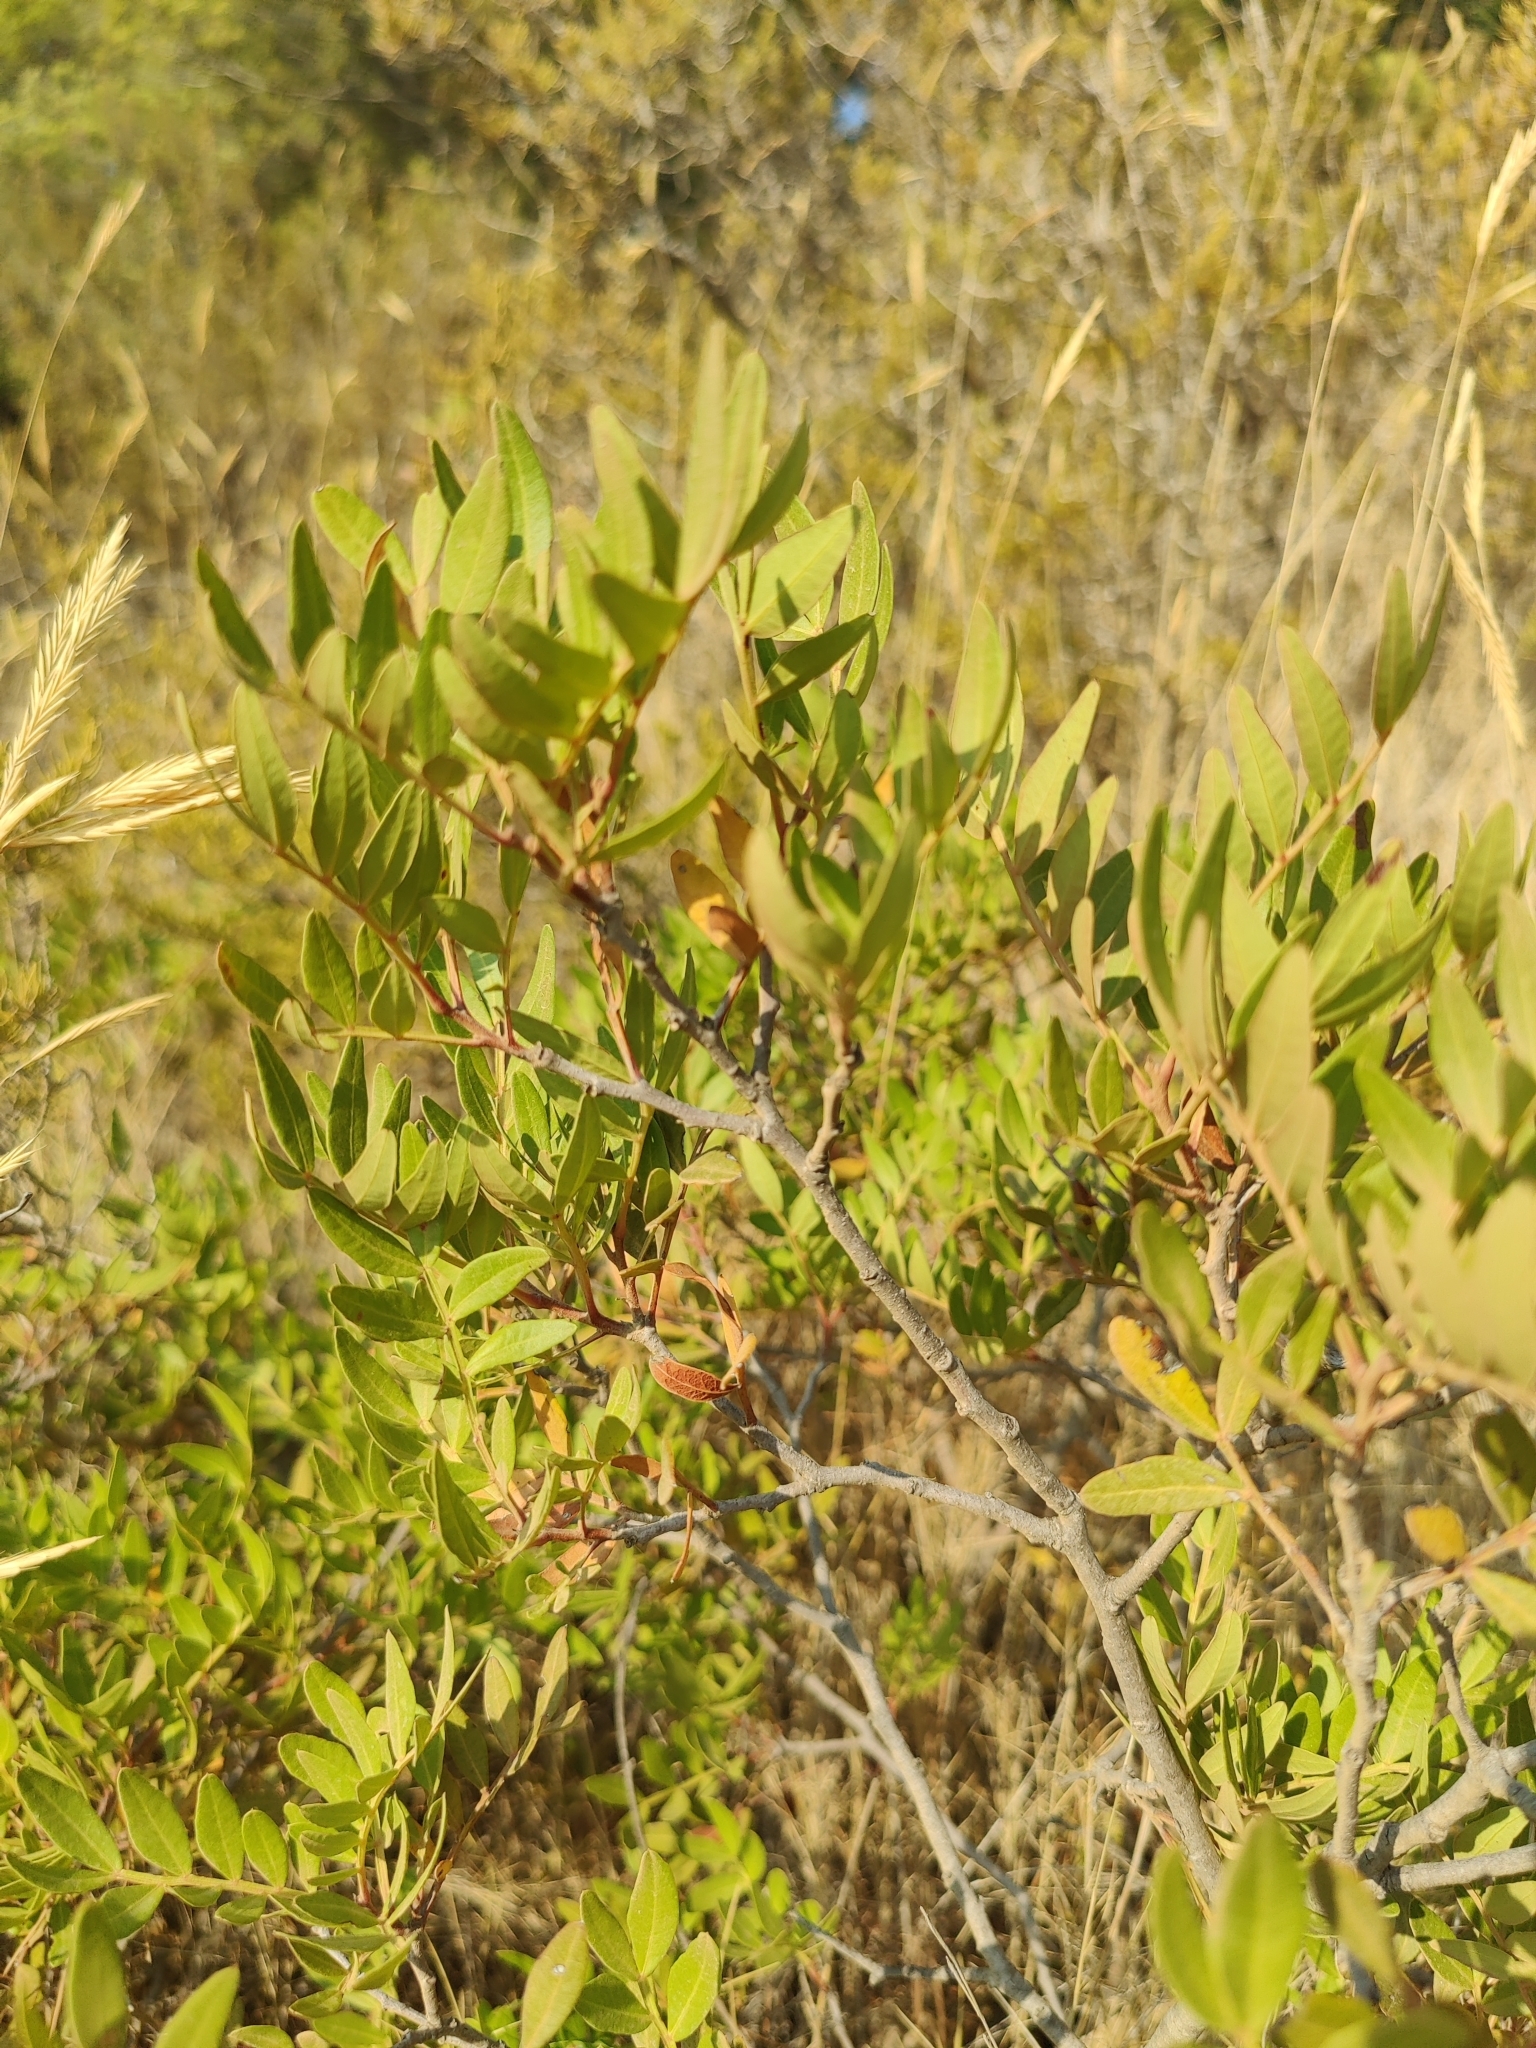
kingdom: Plantae
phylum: Tracheophyta
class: Magnoliopsida
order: Sapindales
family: Anacardiaceae
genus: Pistacia
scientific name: Pistacia lentiscus
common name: Lentisk
